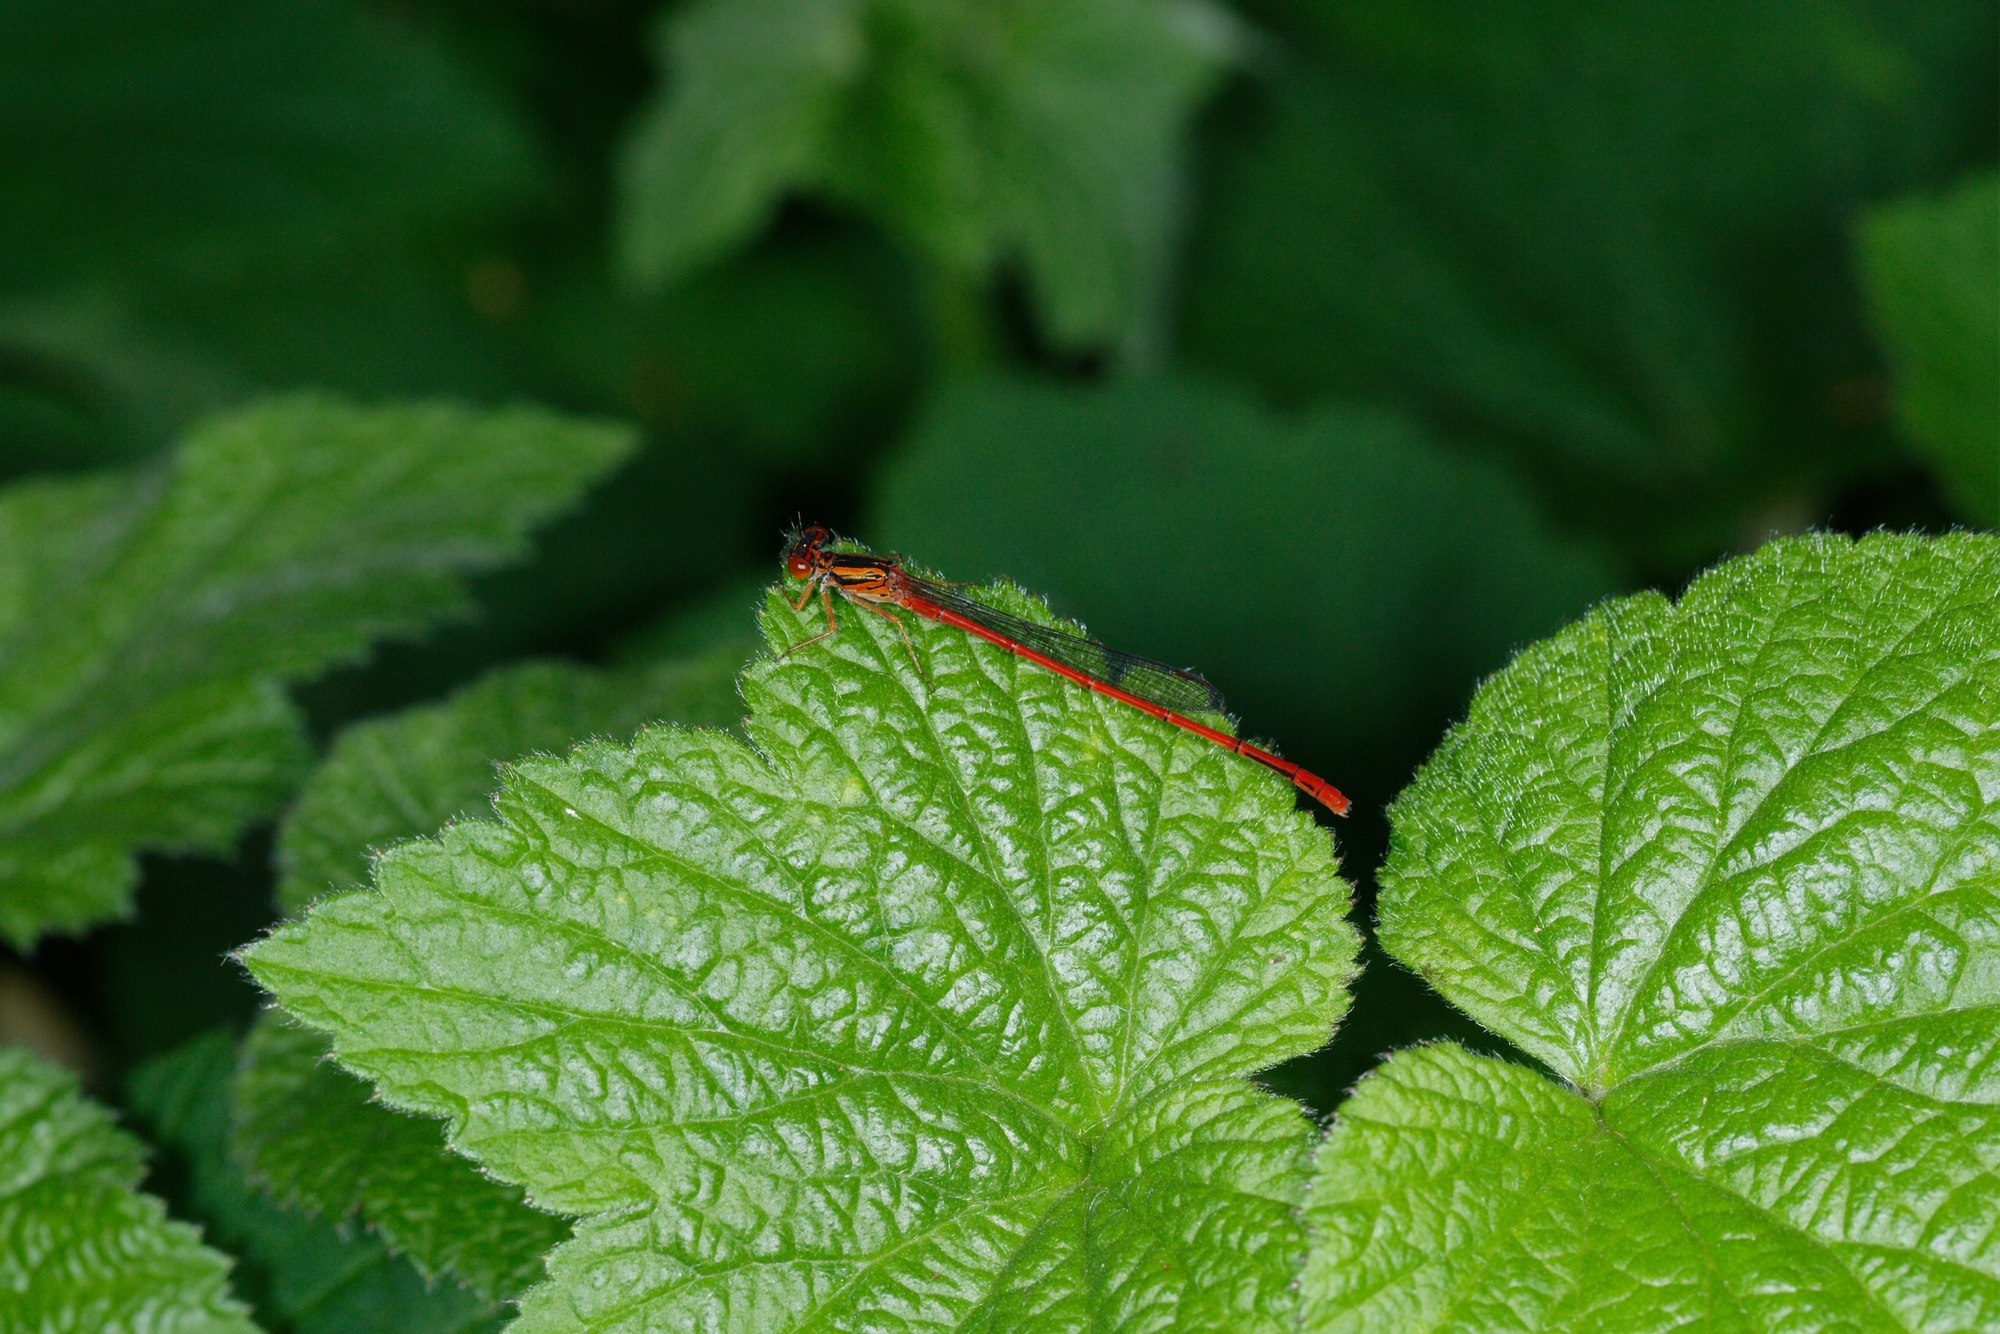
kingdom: Animalia
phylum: Arthropoda
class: Insecta
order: Odonata
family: Coenagrionidae
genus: Xanthocnemis
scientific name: Xanthocnemis zealandica
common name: Common redcoat damselfly
